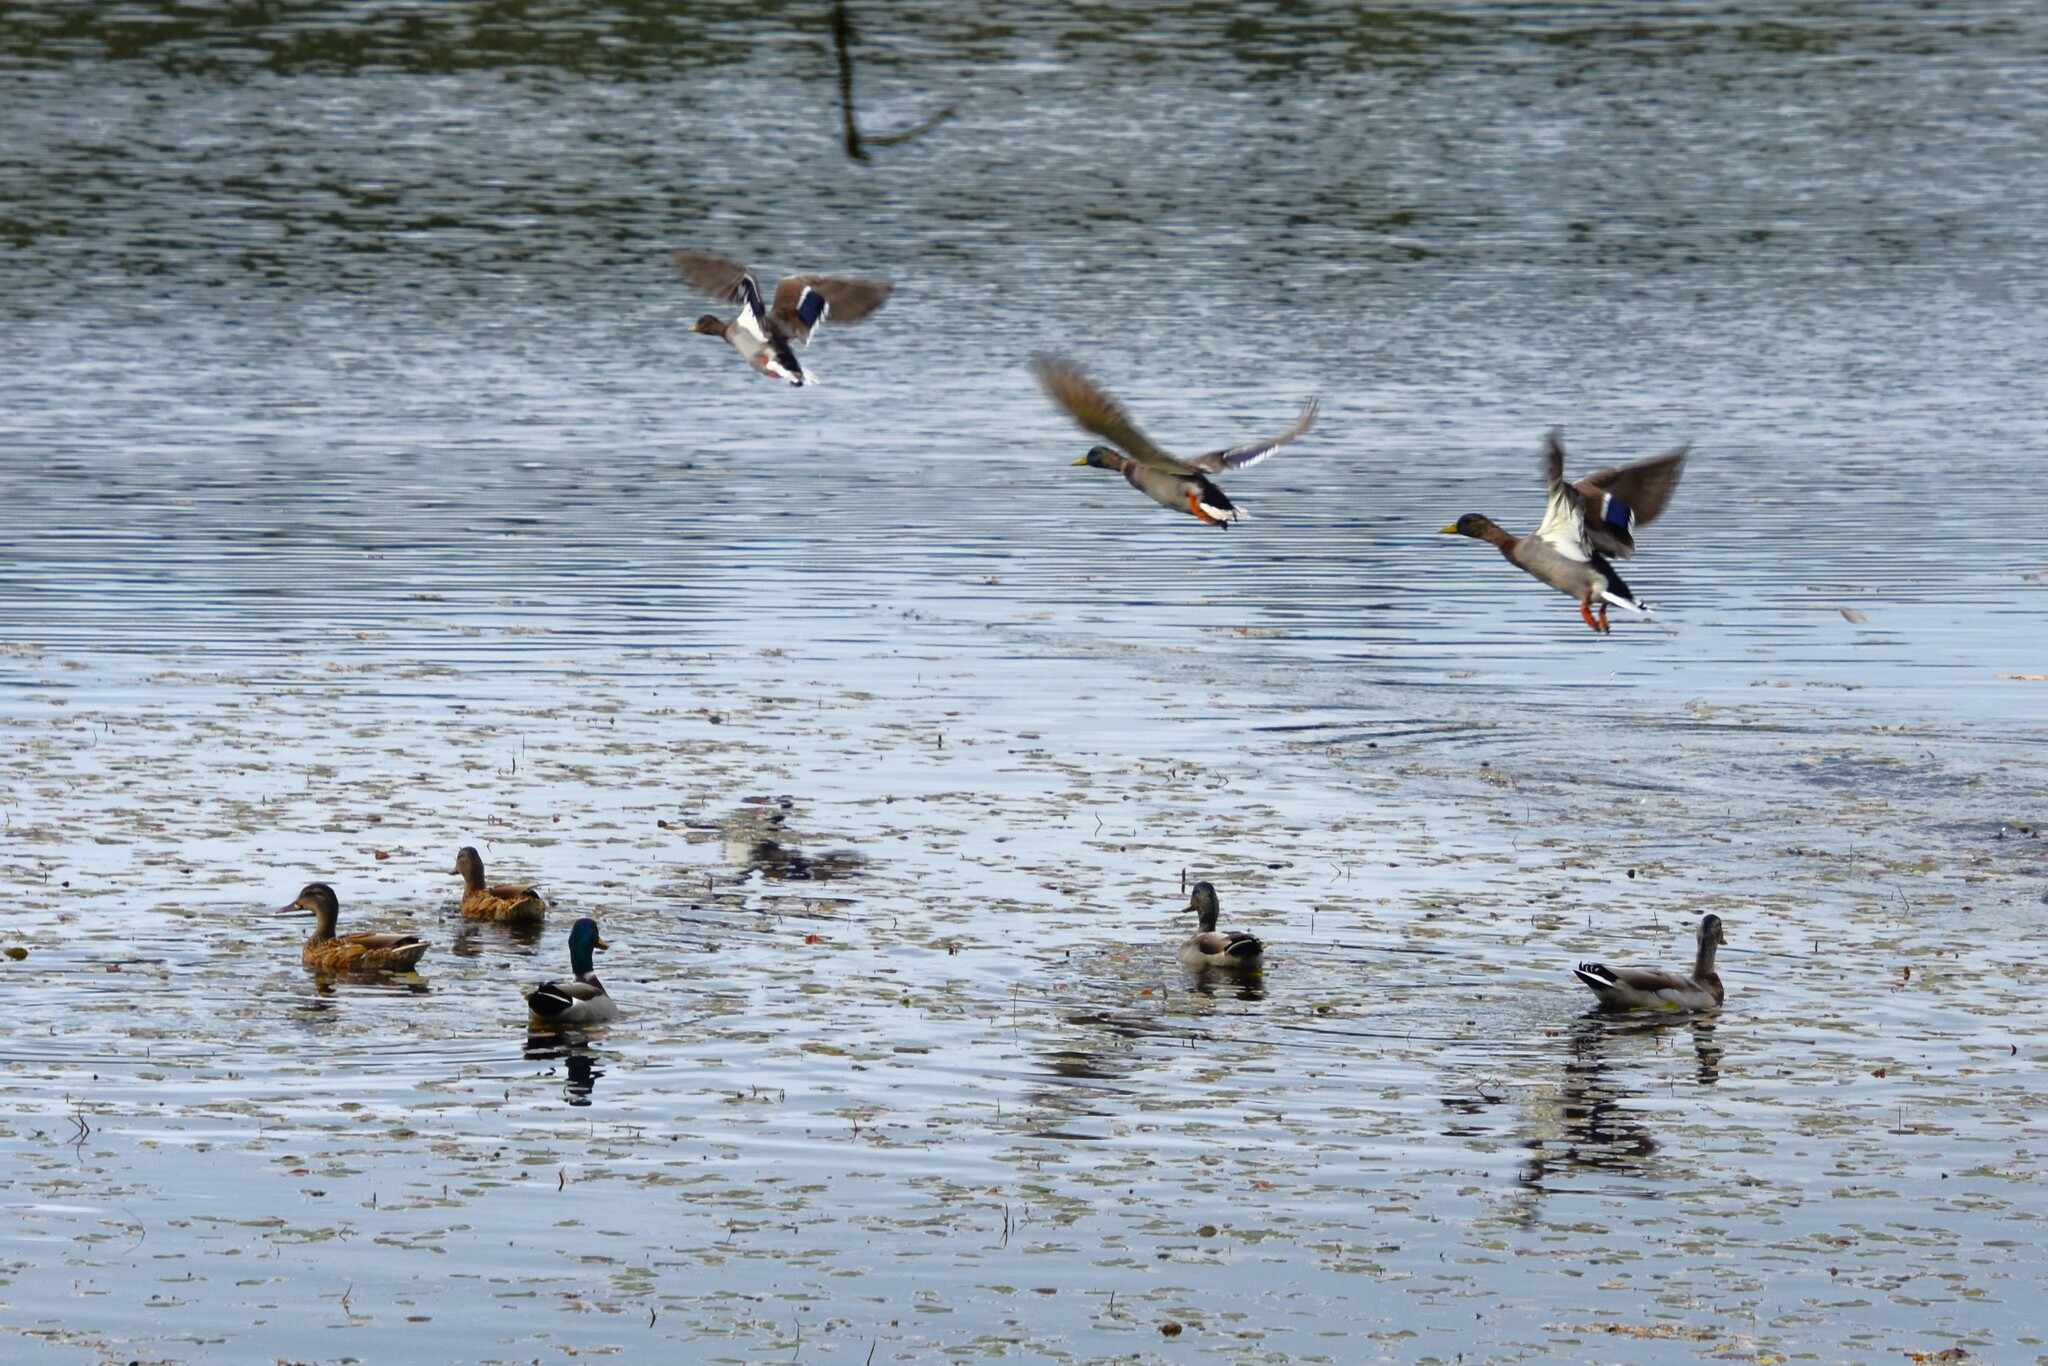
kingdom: Animalia
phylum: Chordata
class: Aves
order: Anseriformes
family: Anatidae
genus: Anas
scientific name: Anas platyrhynchos
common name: Mallard
